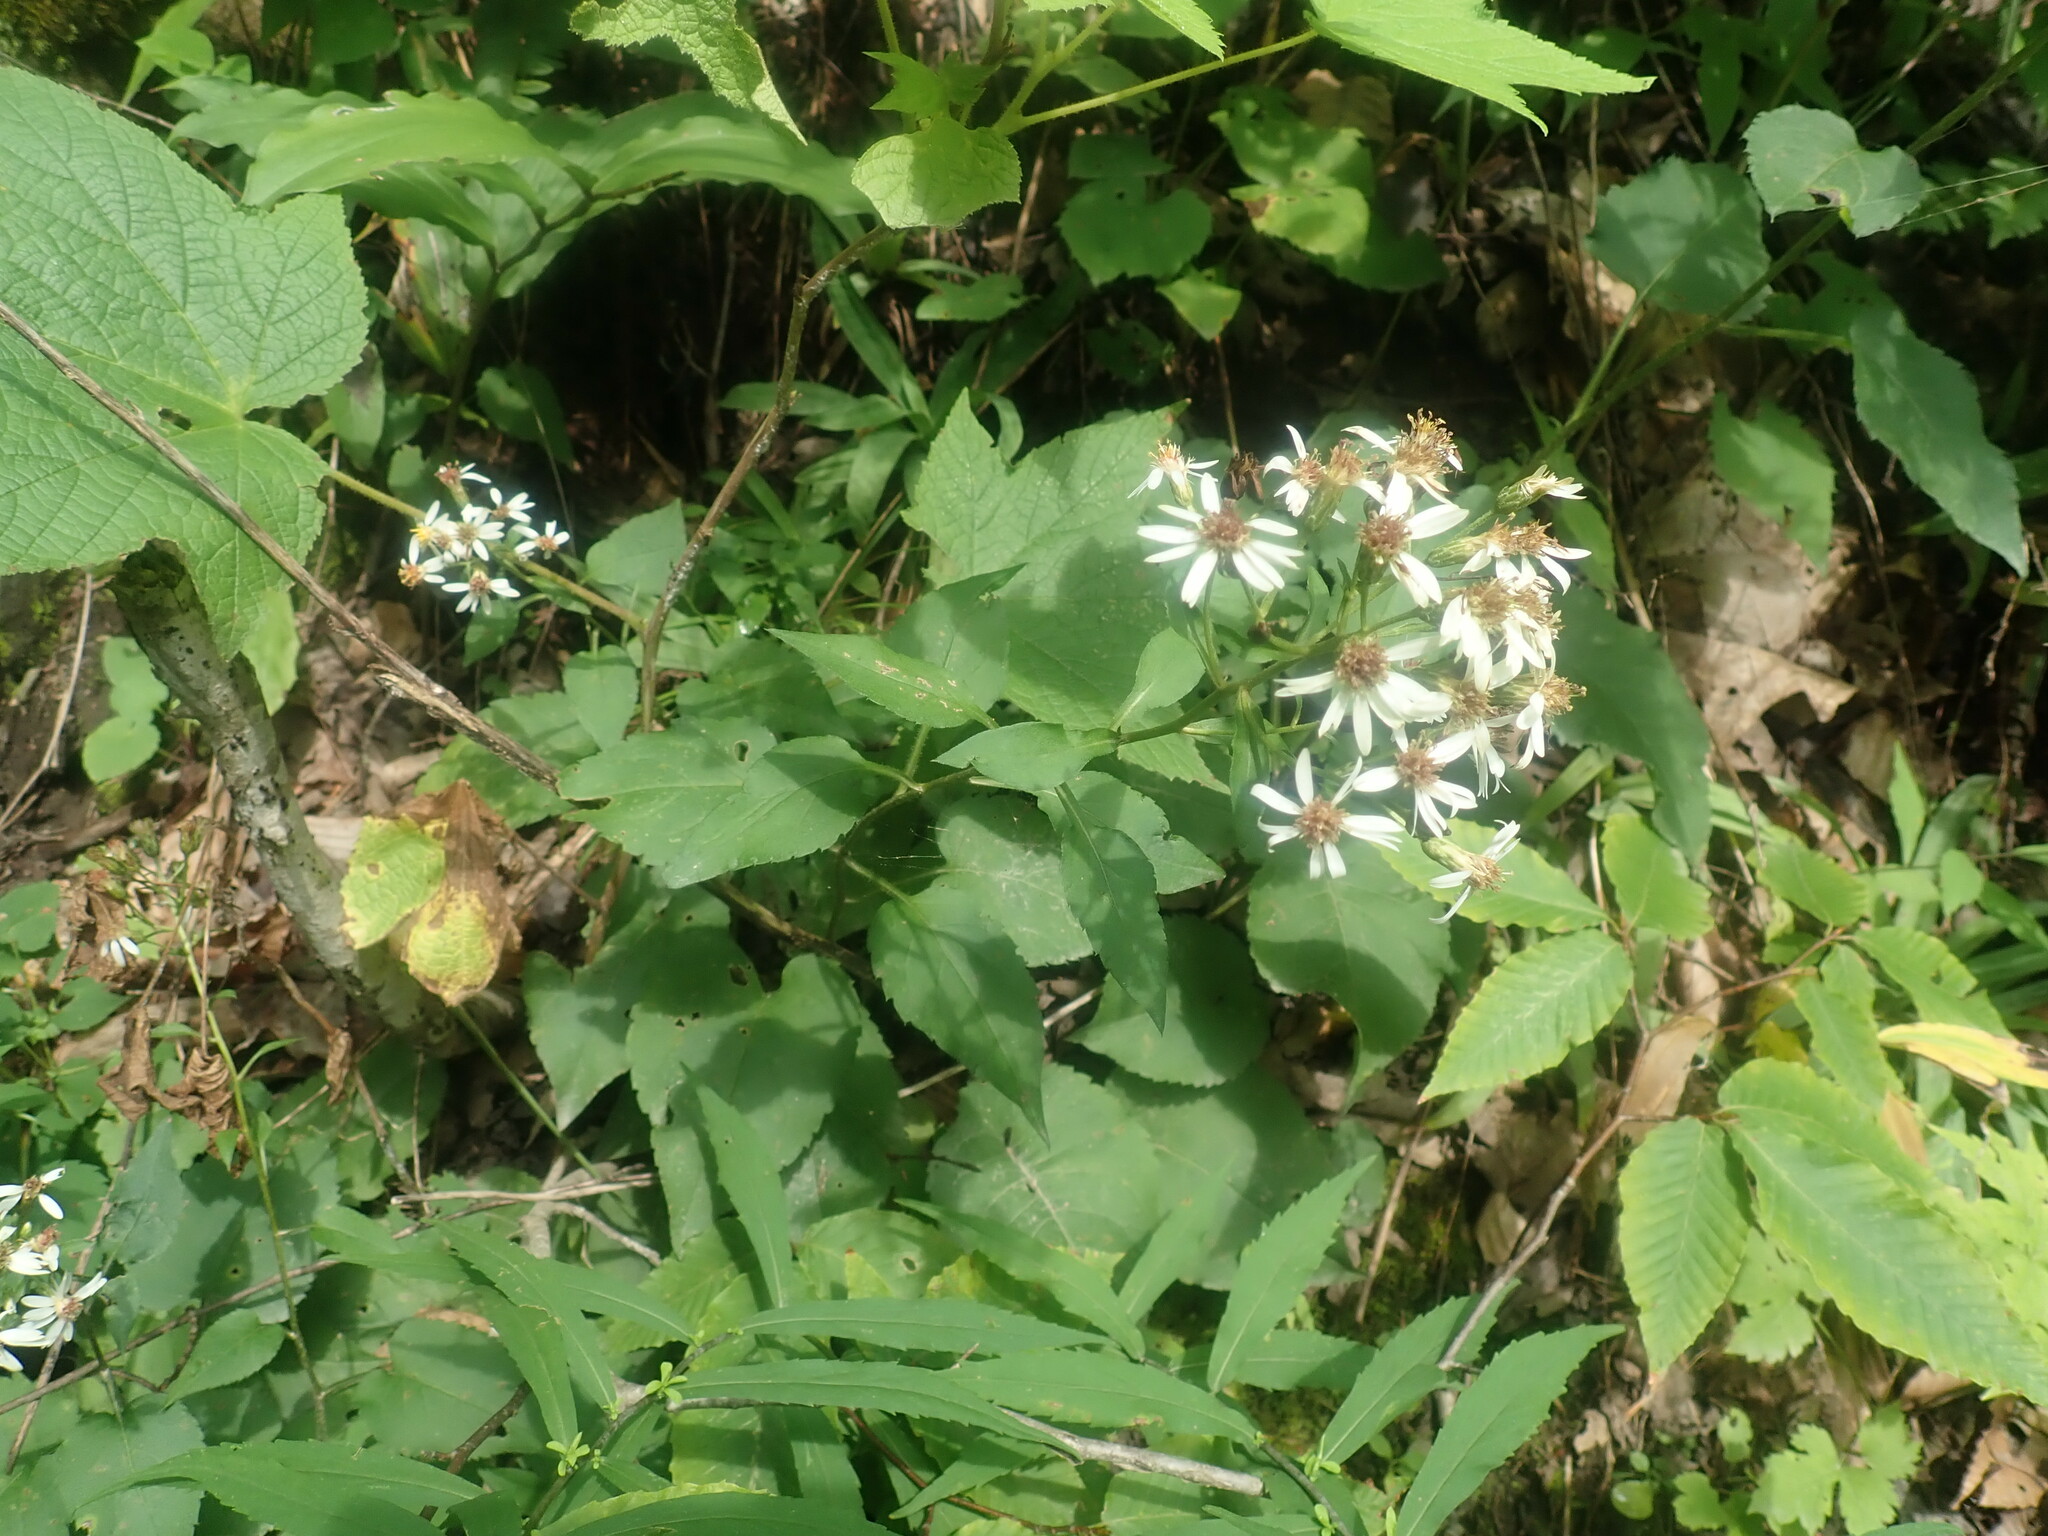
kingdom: Plantae
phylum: Tracheophyta
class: Magnoliopsida
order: Asterales
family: Asteraceae
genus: Eurybia
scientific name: Eurybia divaricata
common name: White wood aster
